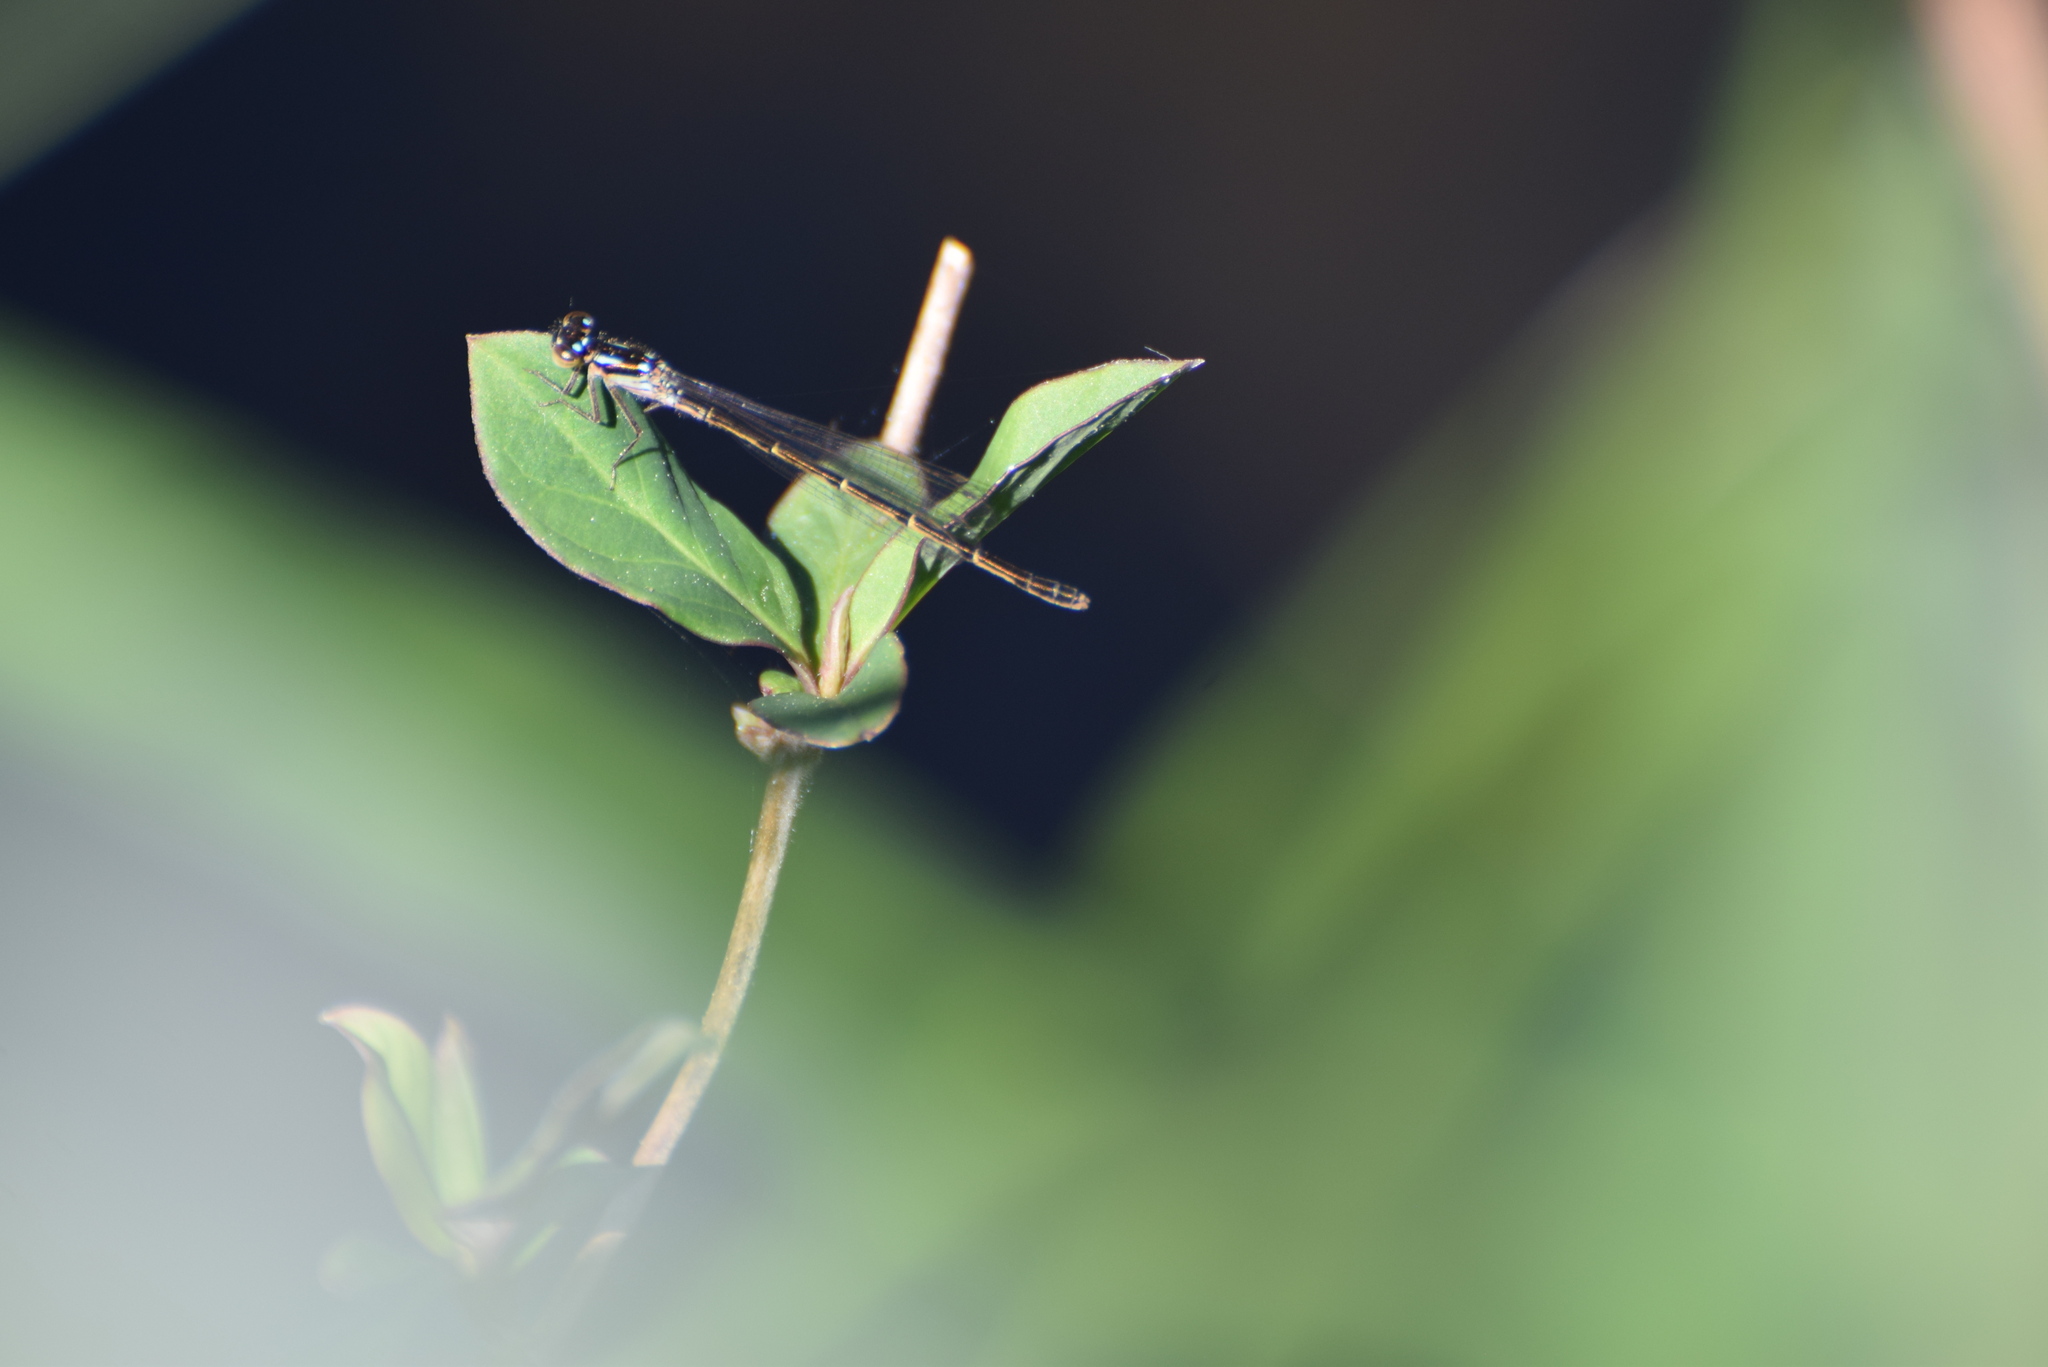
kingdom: Animalia
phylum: Arthropoda
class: Insecta
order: Odonata
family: Coenagrionidae
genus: Ischnura
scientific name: Ischnura posita
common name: Fragile forktail
